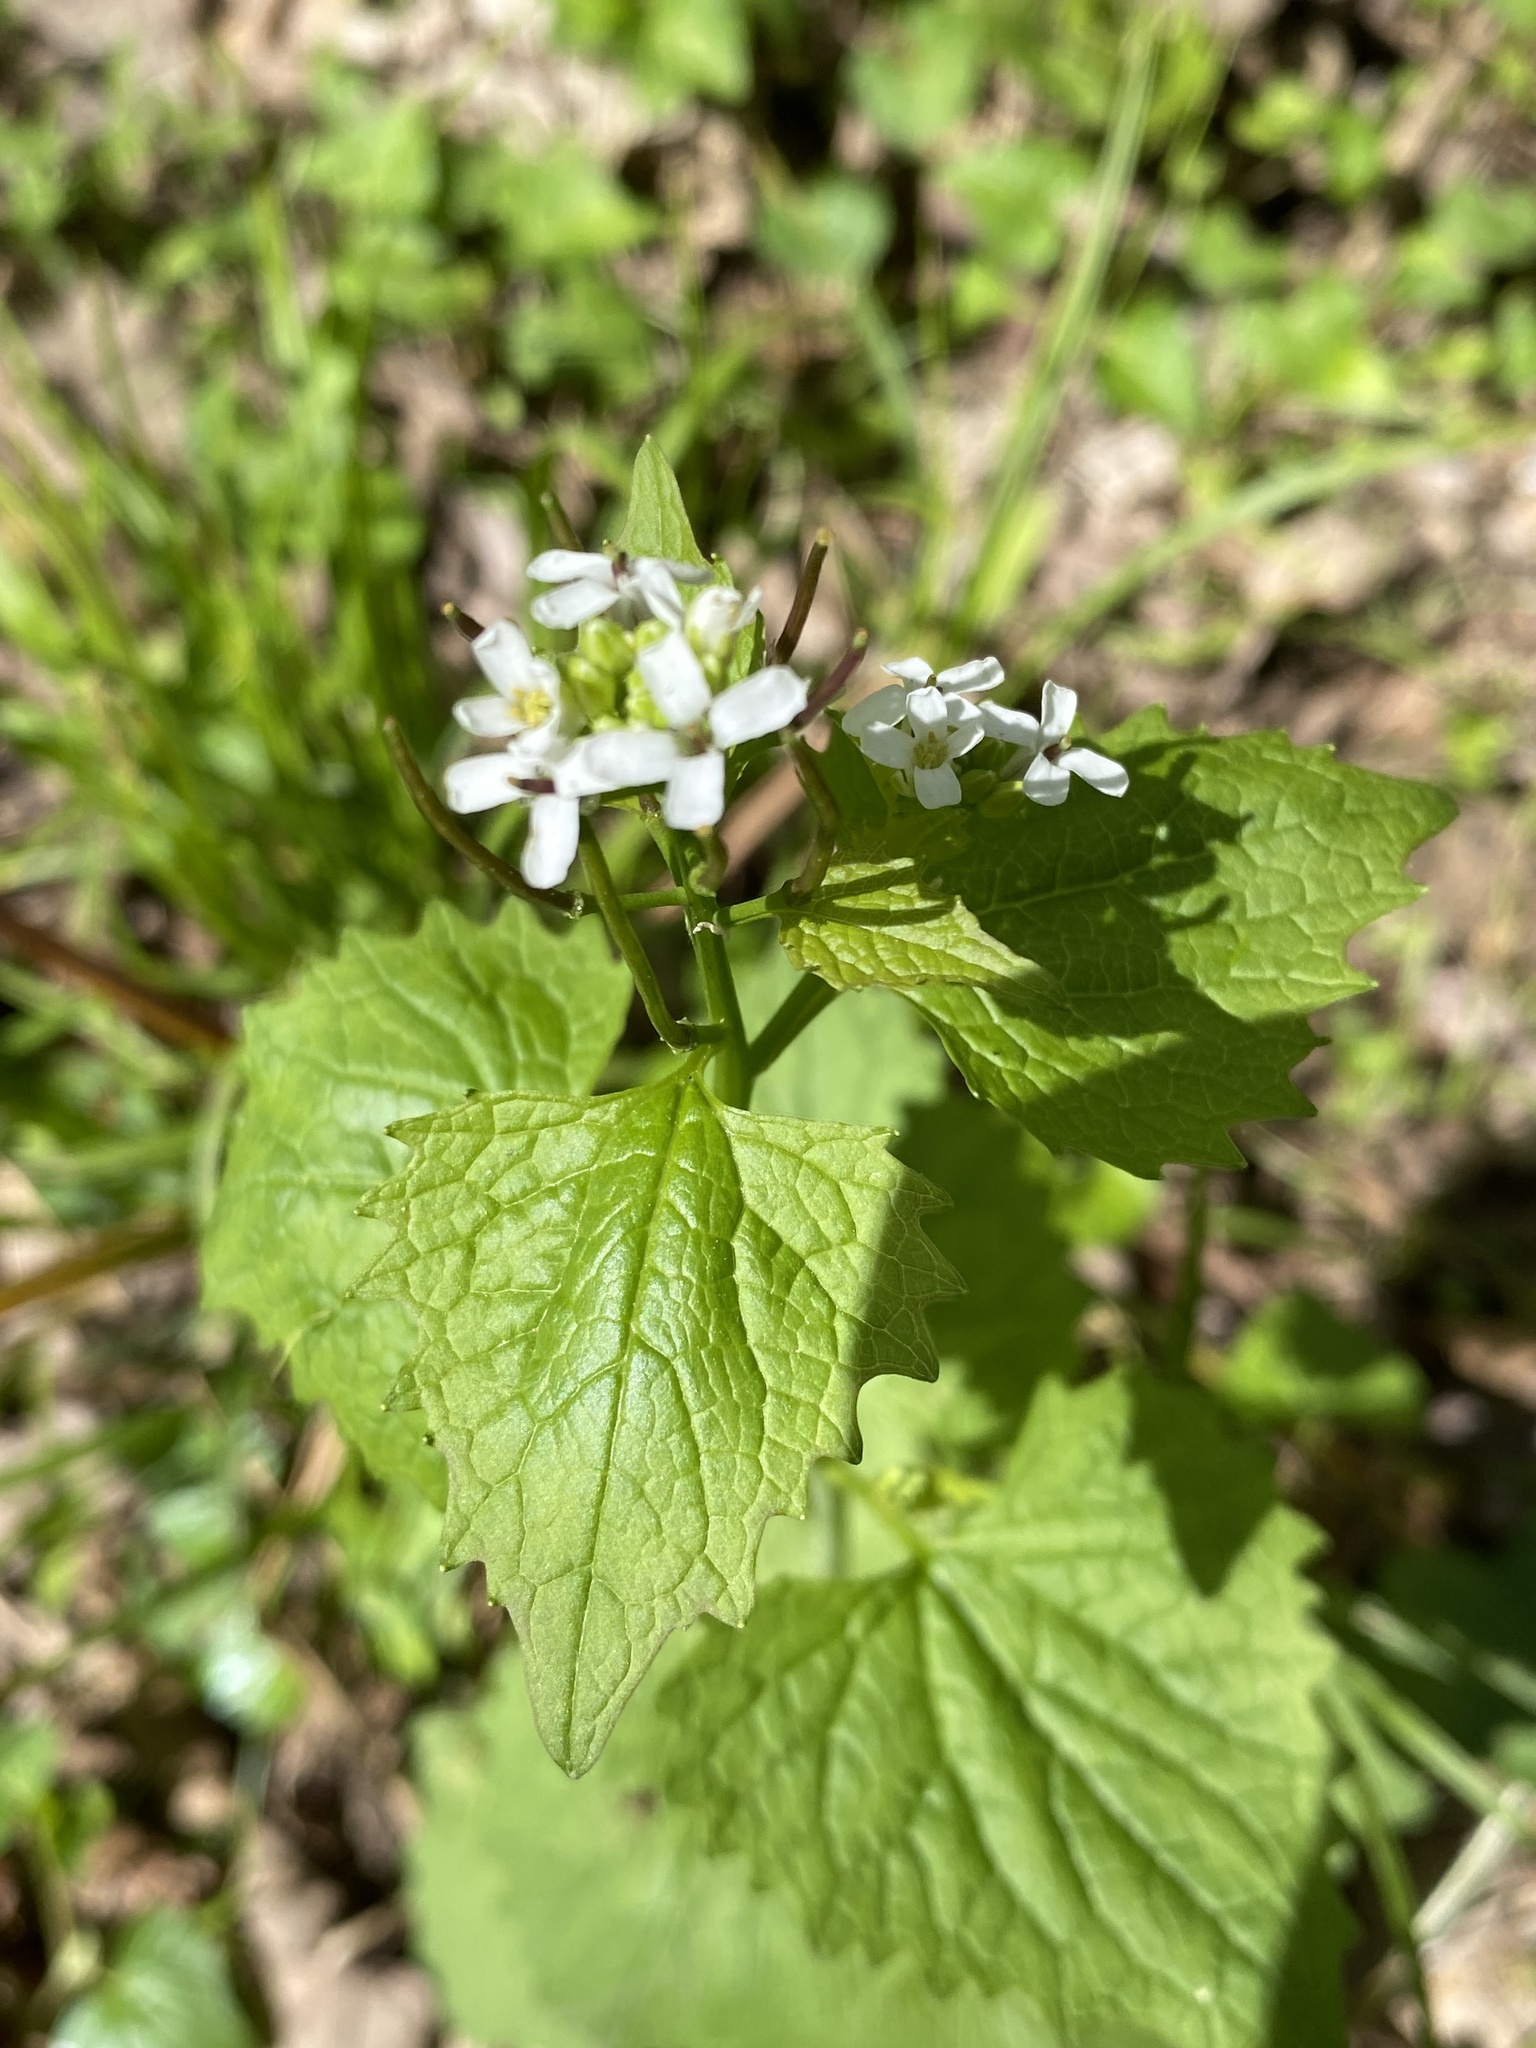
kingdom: Plantae
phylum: Tracheophyta
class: Magnoliopsida
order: Brassicales
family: Brassicaceae
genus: Alliaria
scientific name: Alliaria petiolata
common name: Garlic mustard
